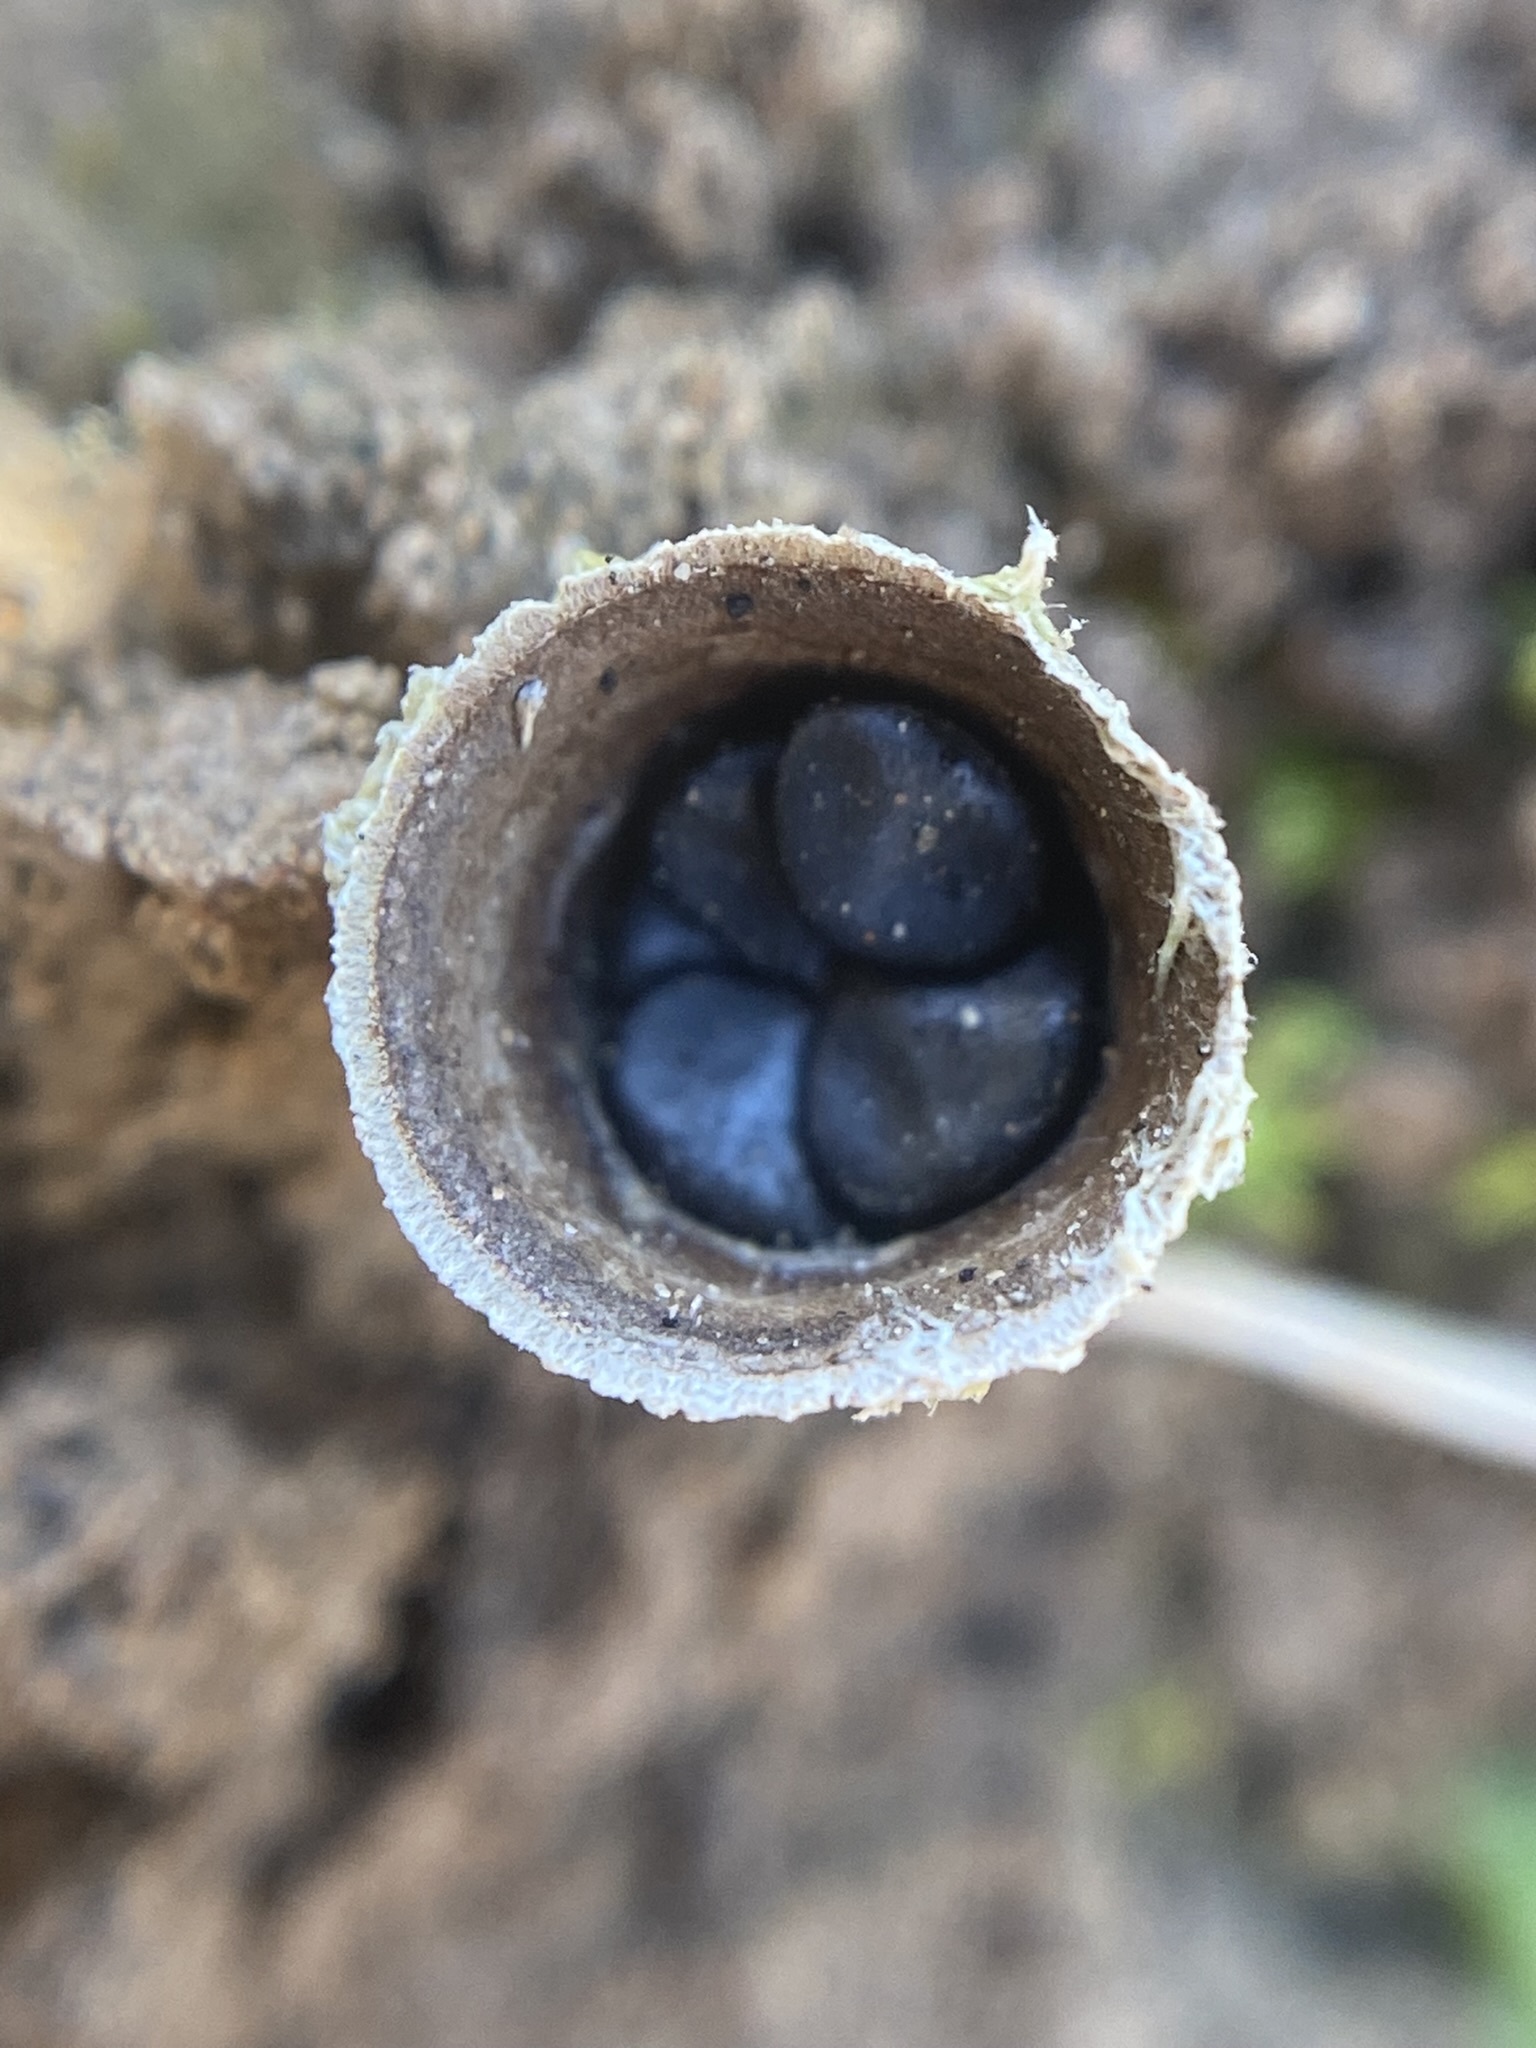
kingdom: Fungi
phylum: Basidiomycota
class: Agaricomycetes
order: Agaricales
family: Agaricaceae
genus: Cyathus
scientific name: Cyathus stercoreus
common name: Dung bird's nest
